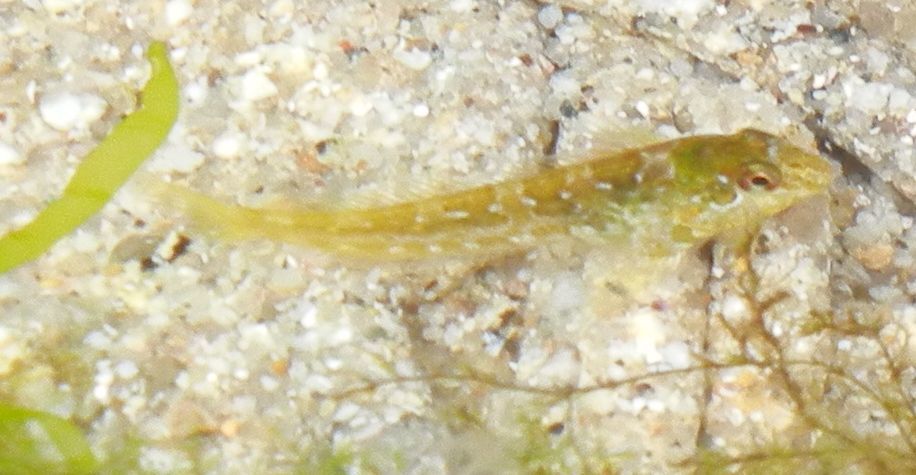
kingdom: Animalia
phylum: Chordata
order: Perciformes
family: Blenniidae
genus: Lipophrys
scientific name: Lipophrys pholis
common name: Shanny
